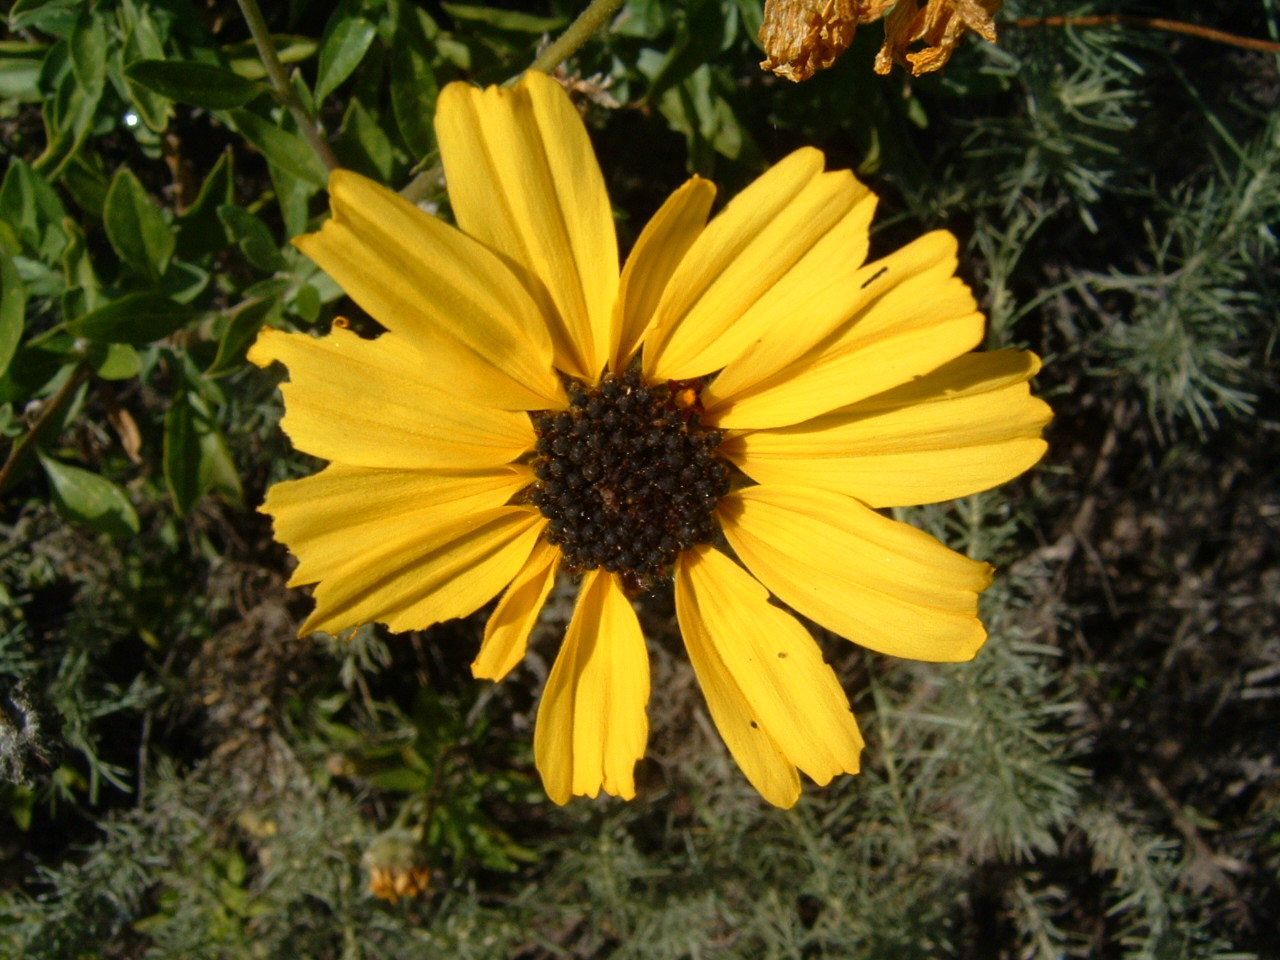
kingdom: Plantae
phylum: Tracheophyta
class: Magnoliopsida
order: Asterales
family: Asteraceae
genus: Encelia
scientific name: Encelia californica
